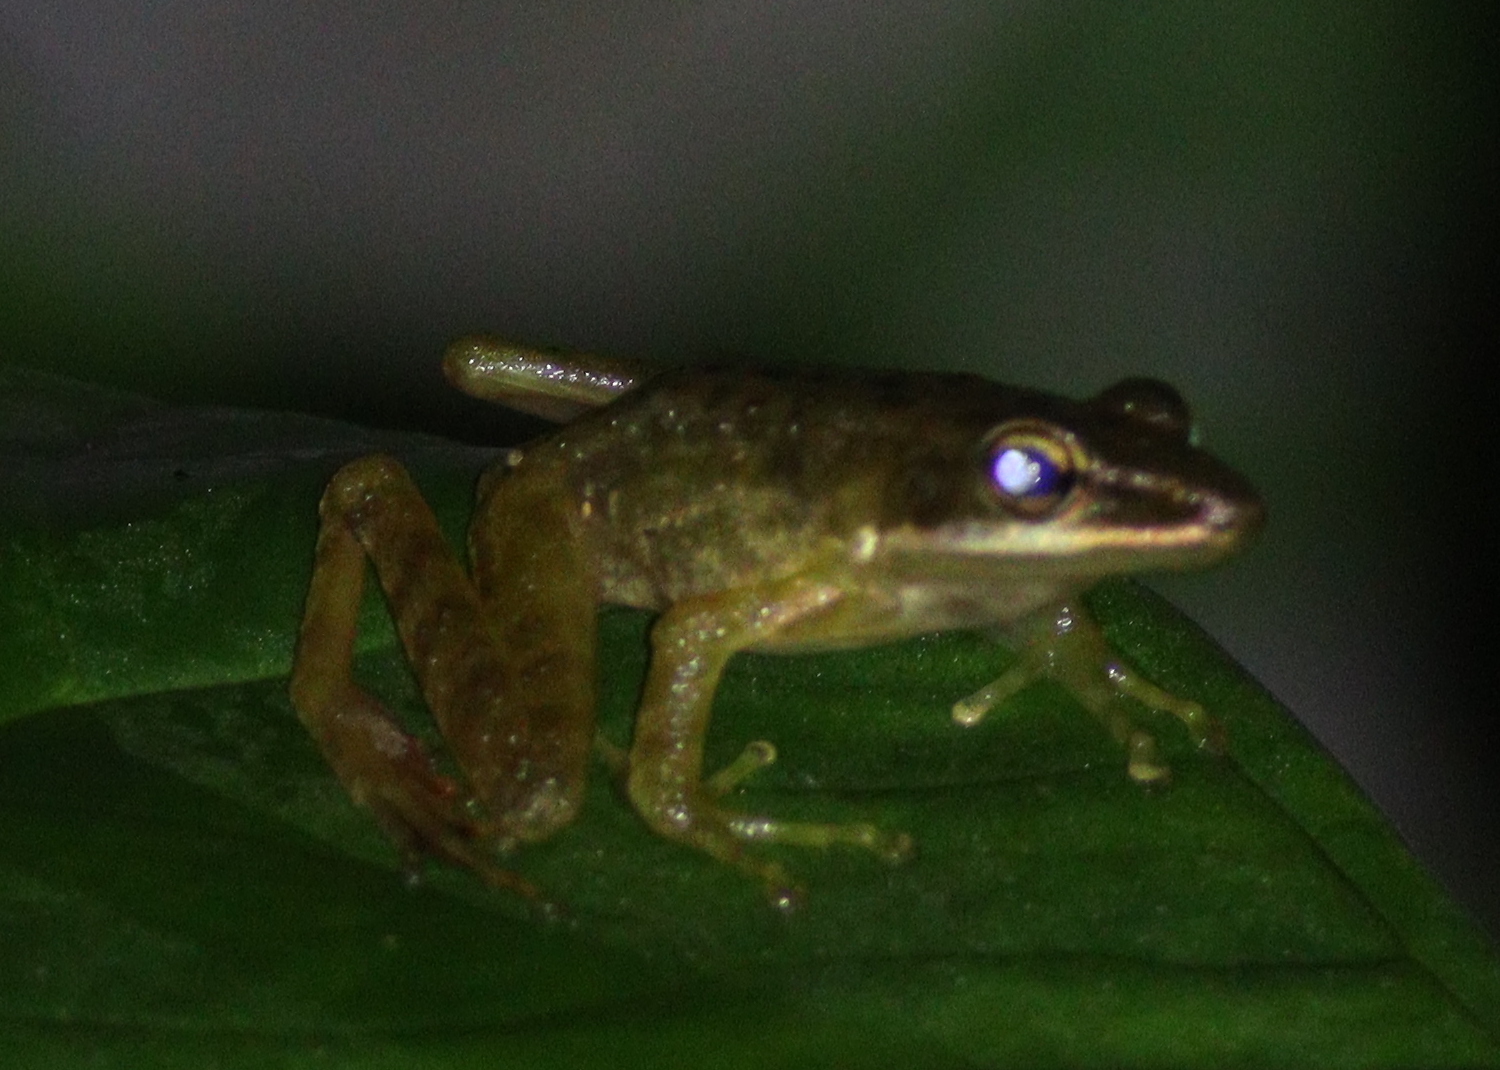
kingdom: Animalia
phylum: Chordata
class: Amphibia
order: Anura
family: Ranidae
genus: Chalcorana
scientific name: Chalcorana chalconota
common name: Schlegel's frog
